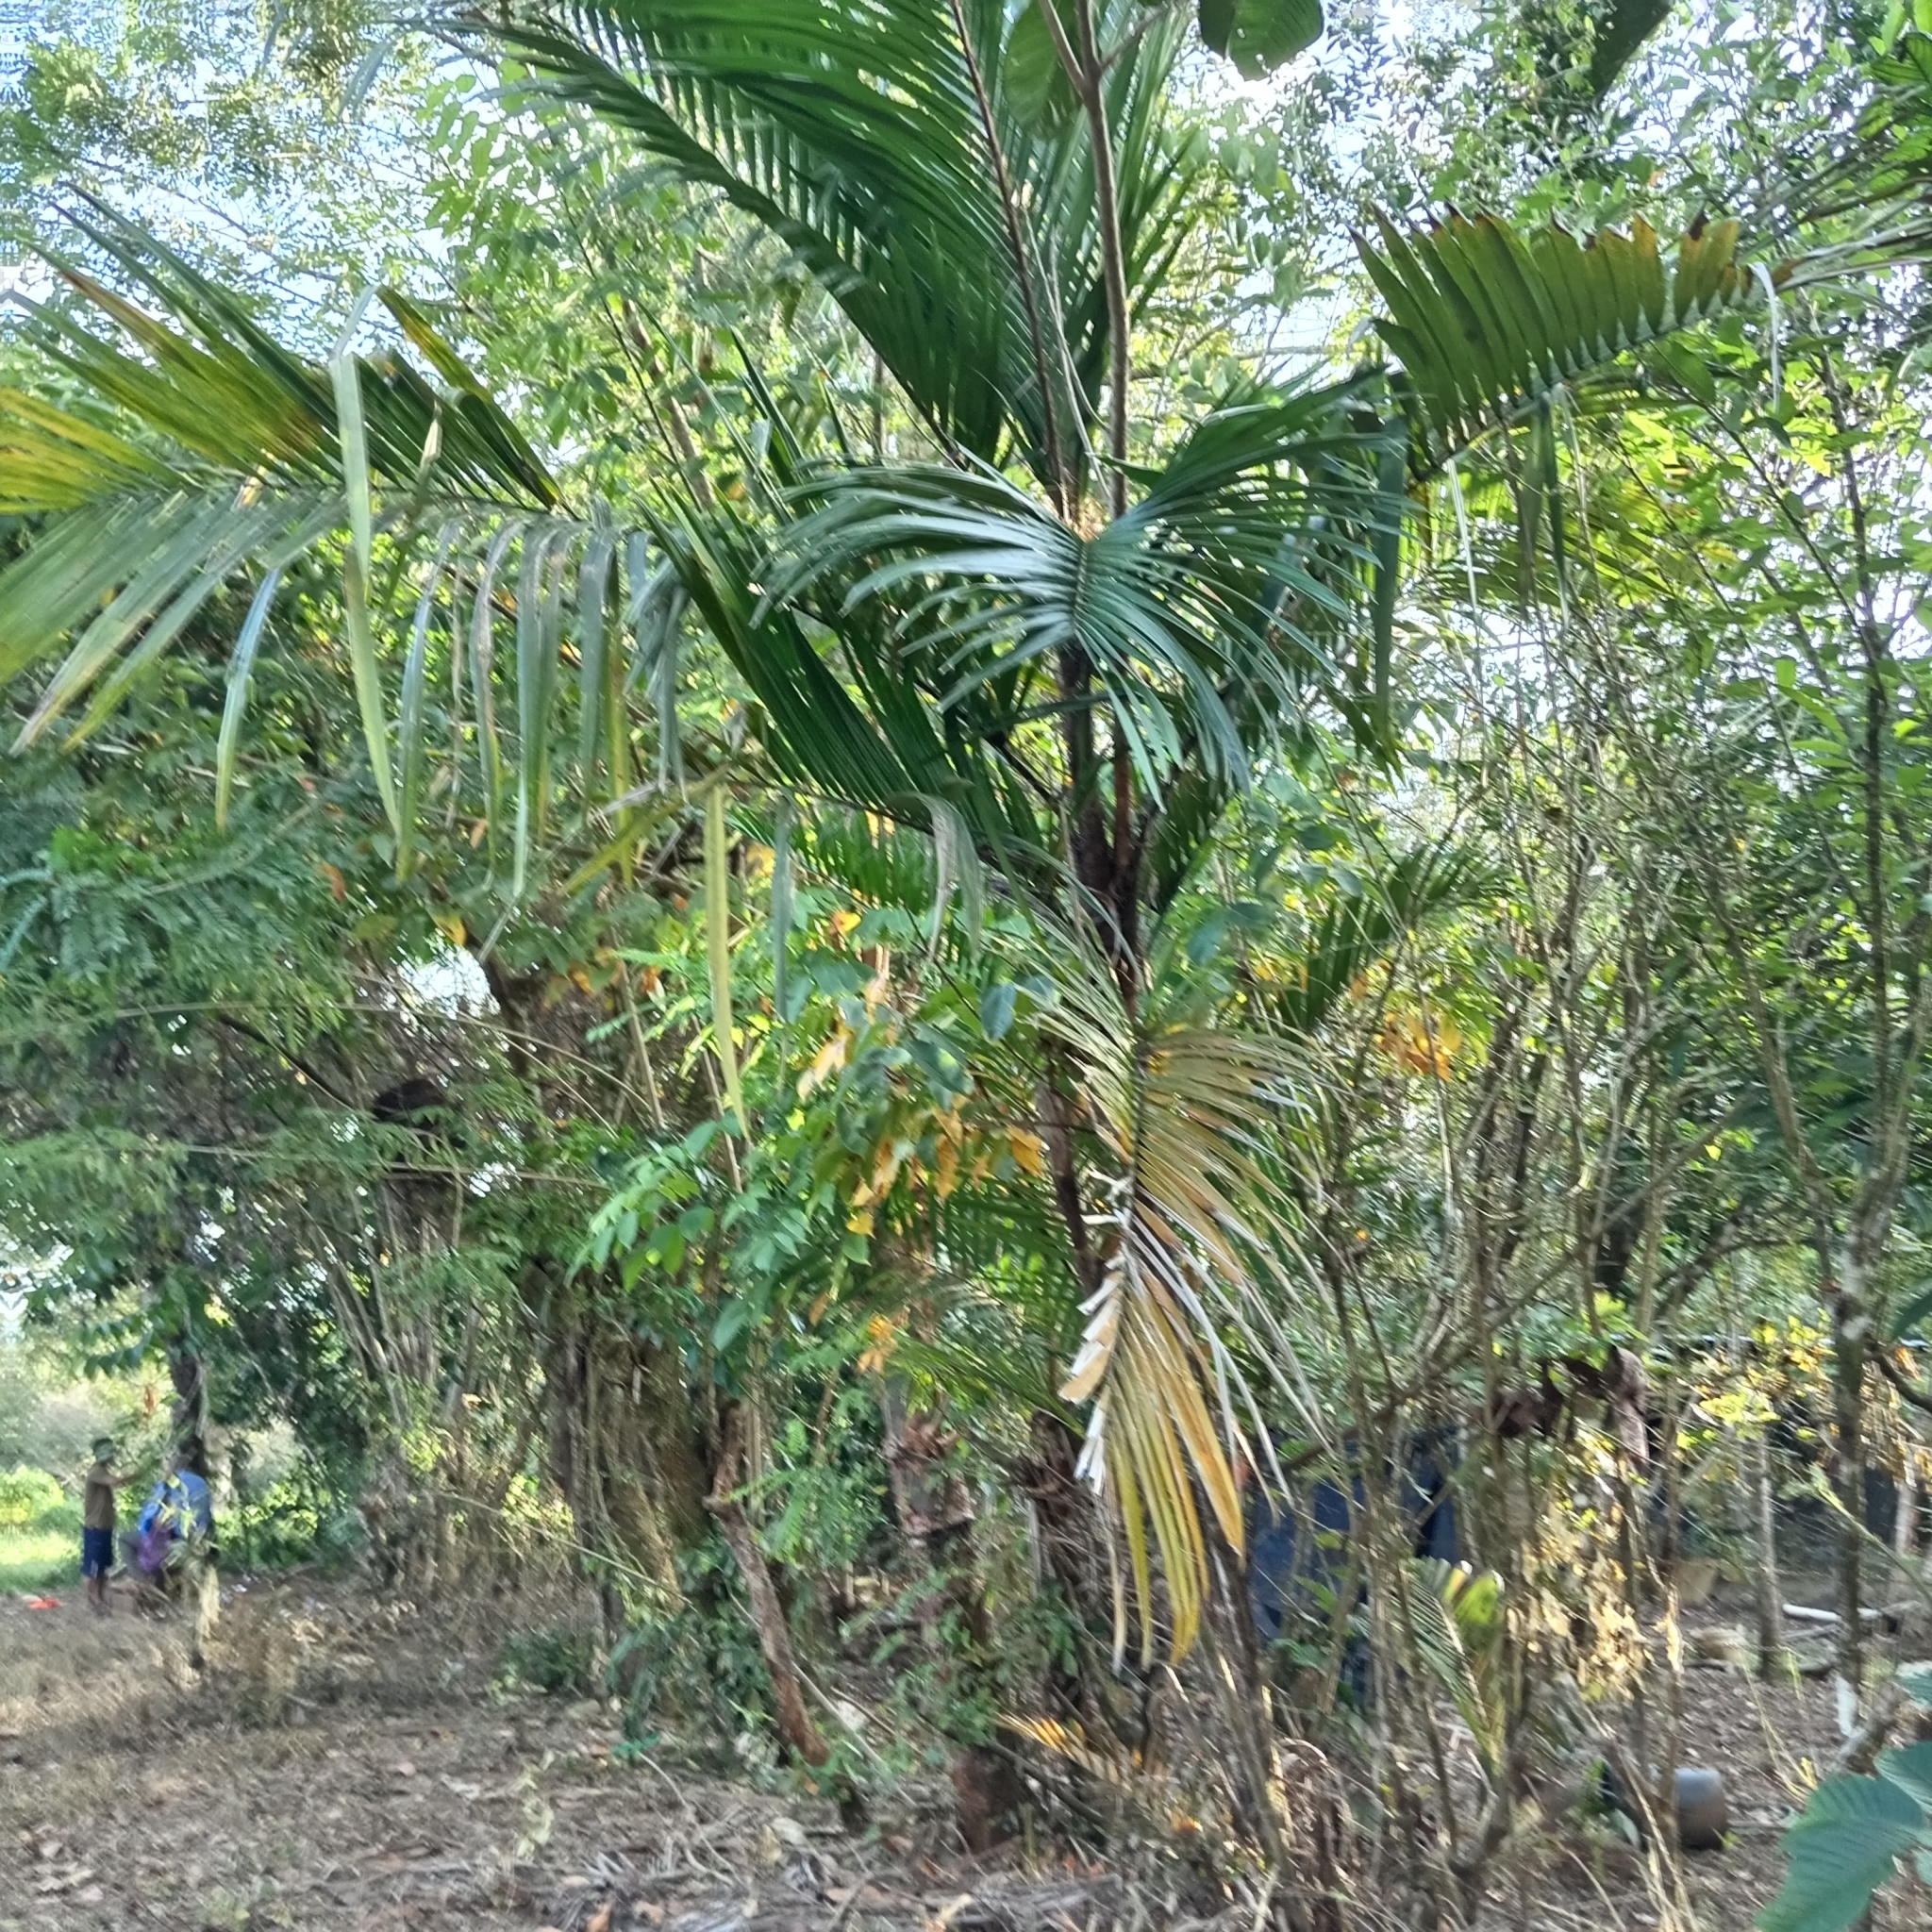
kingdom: Plantae
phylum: Tracheophyta
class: Liliopsida
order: Arecales
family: Arecaceae
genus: Bactris
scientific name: Bactris major
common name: Beach palm
